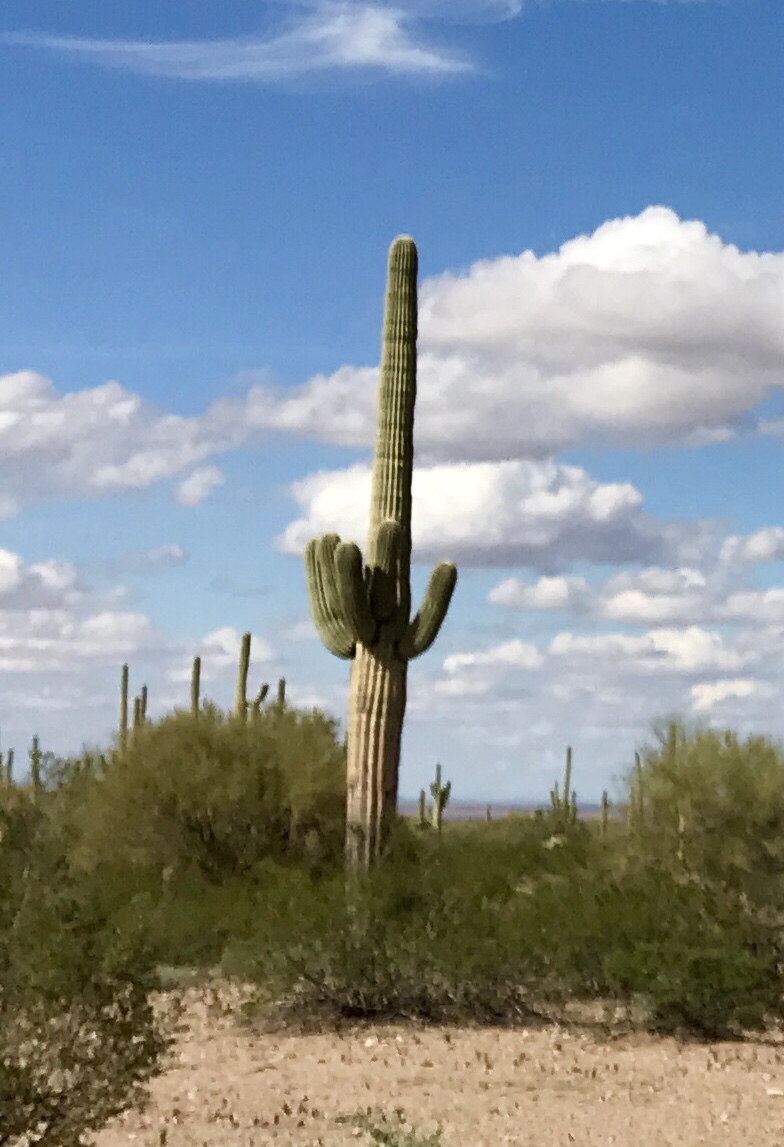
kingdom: Plantae
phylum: Tracheophyta
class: Magnoliopsida
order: Caryophyllales
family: Cactaceae
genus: Carnegiea
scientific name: Carnegiea gigantea
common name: Saguaro
